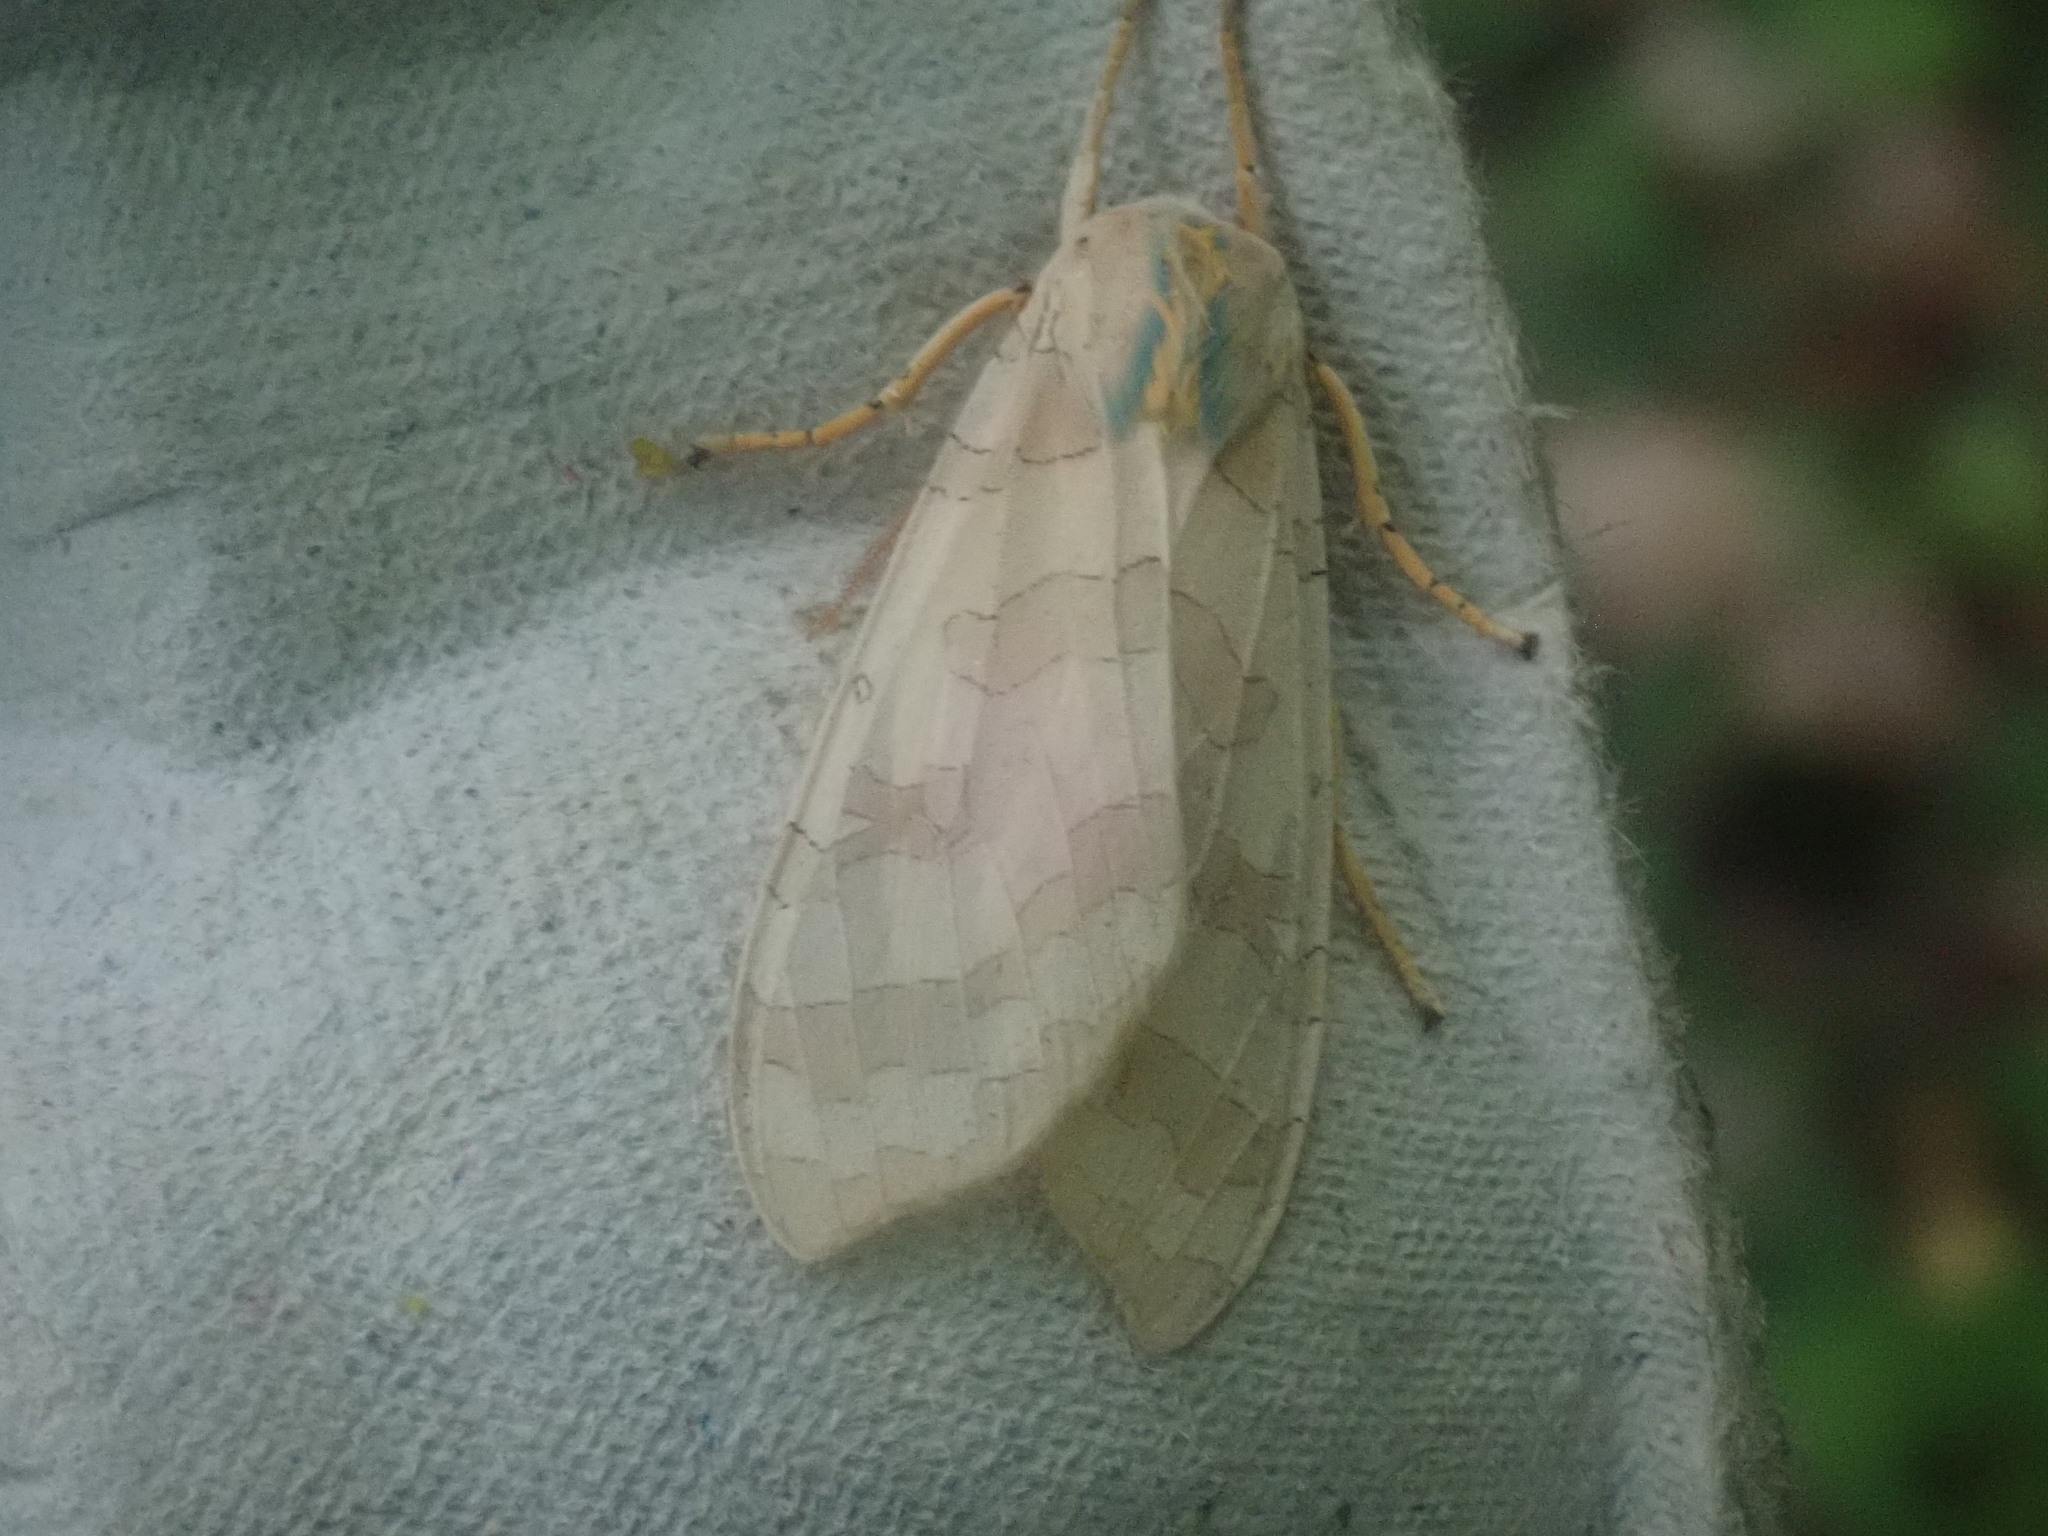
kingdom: Animalia
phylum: Arthropoda
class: Insecta
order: Lepidoptera
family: Erebidae
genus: Halysidota
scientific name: Halysidota tessellaris
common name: Banded tussock moth
